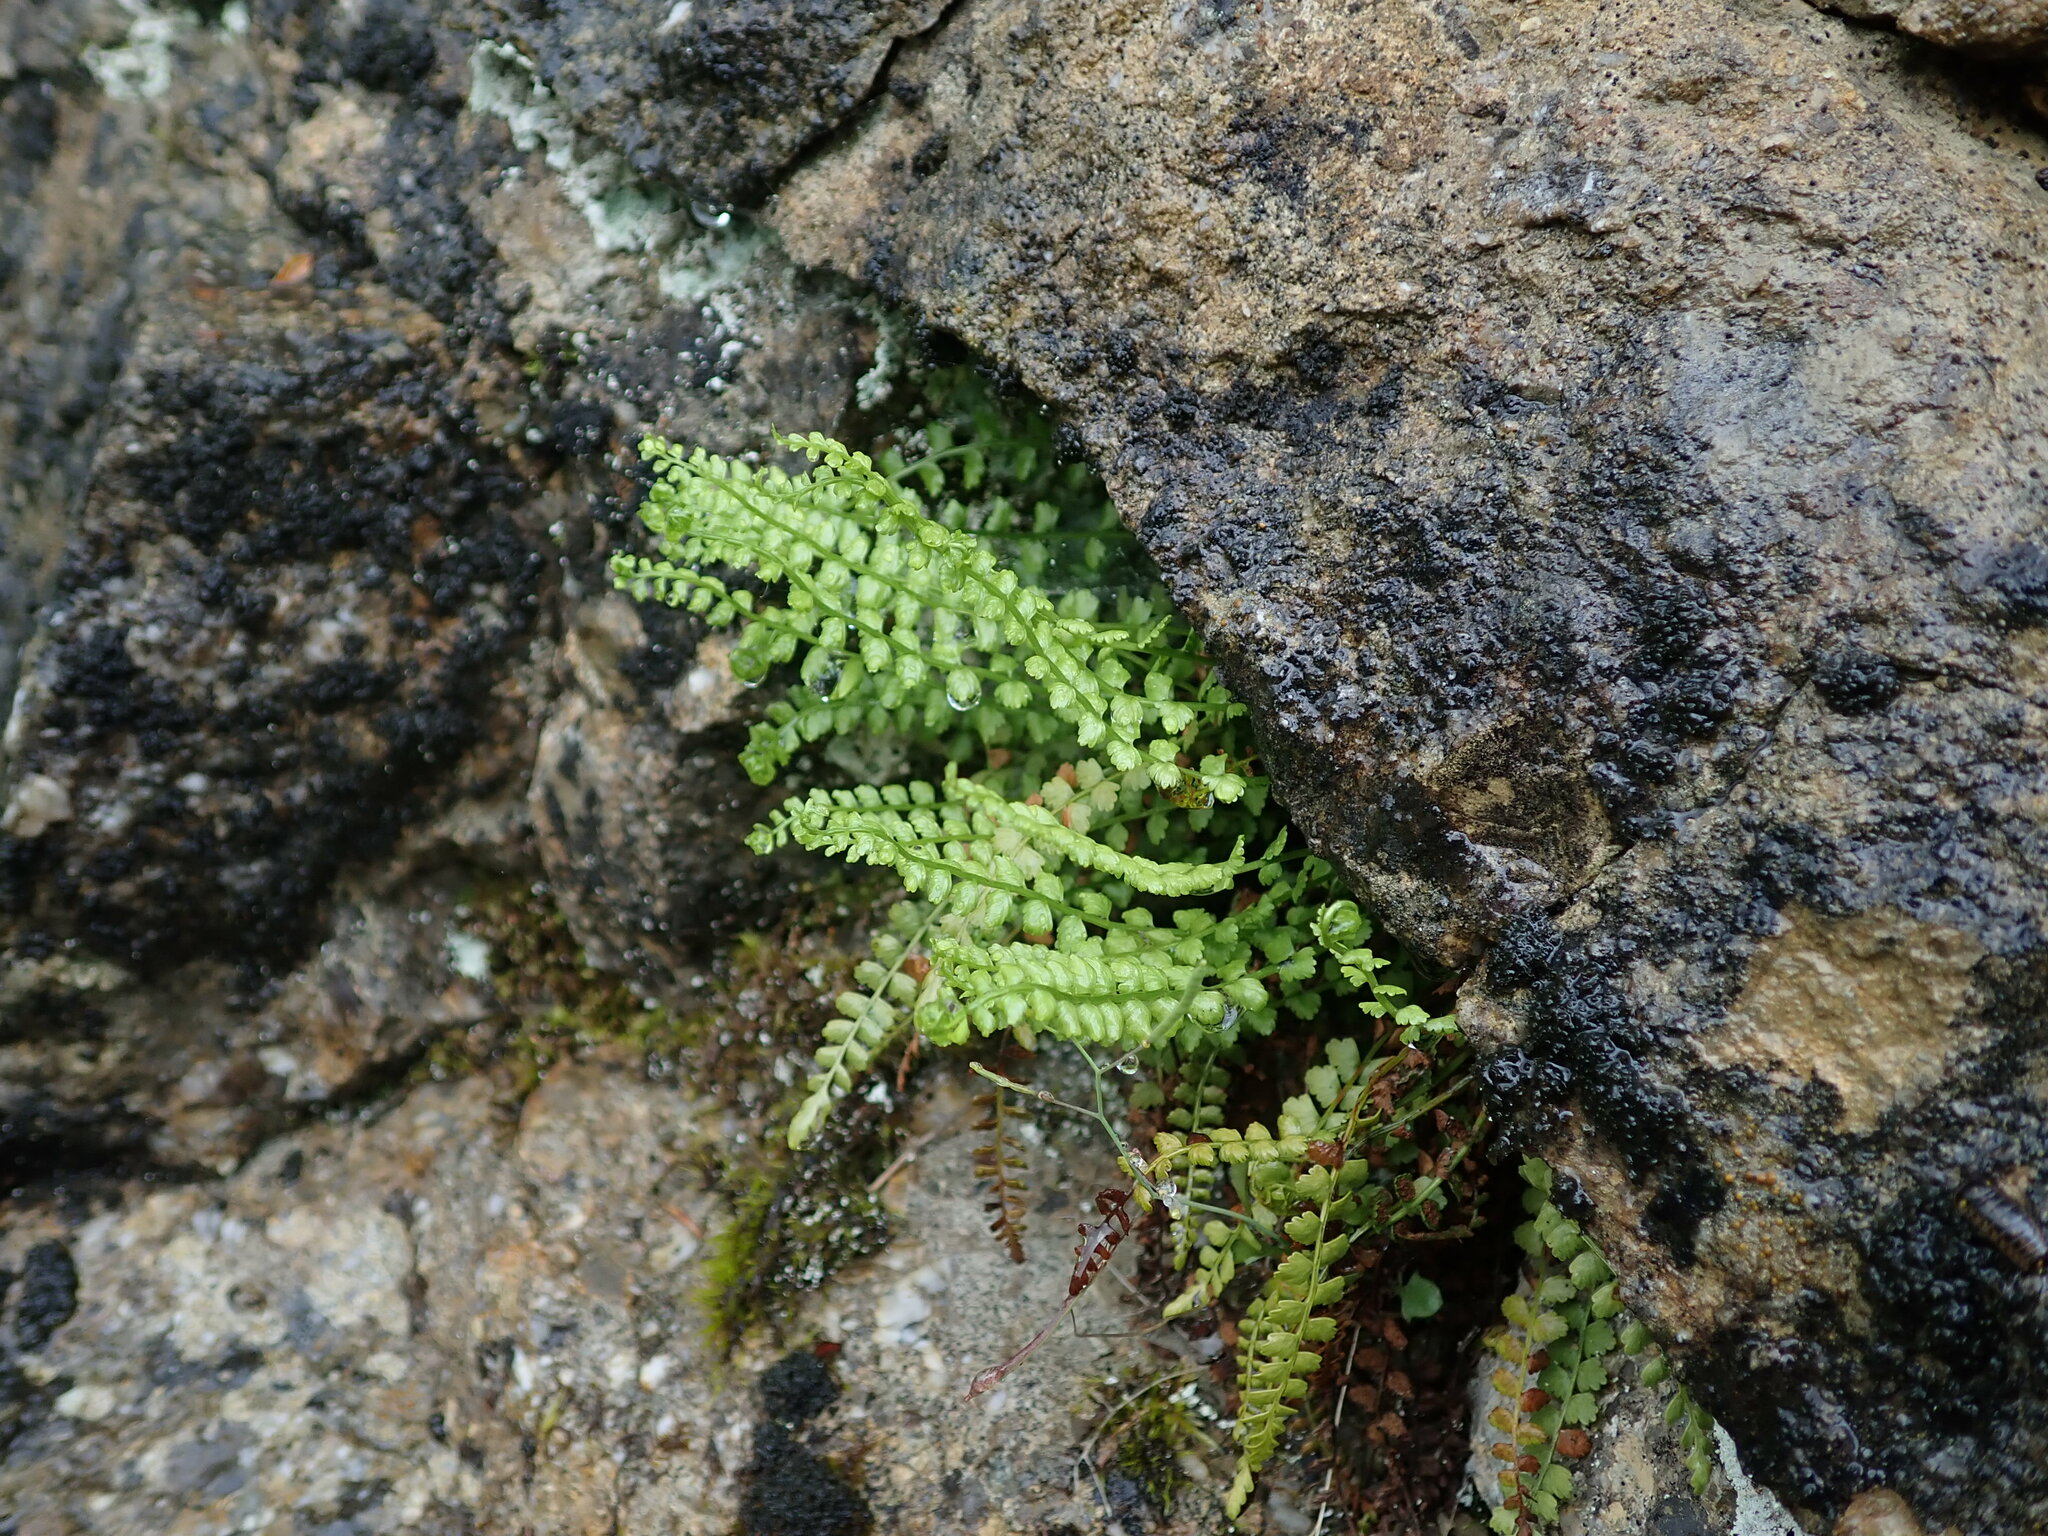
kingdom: Plantae
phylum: Tracheophyta
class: Polypodiopsida
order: Polypodiales
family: Aspleniaceae
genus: Asplenium
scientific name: Asplenium viride
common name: Green spleenwort
